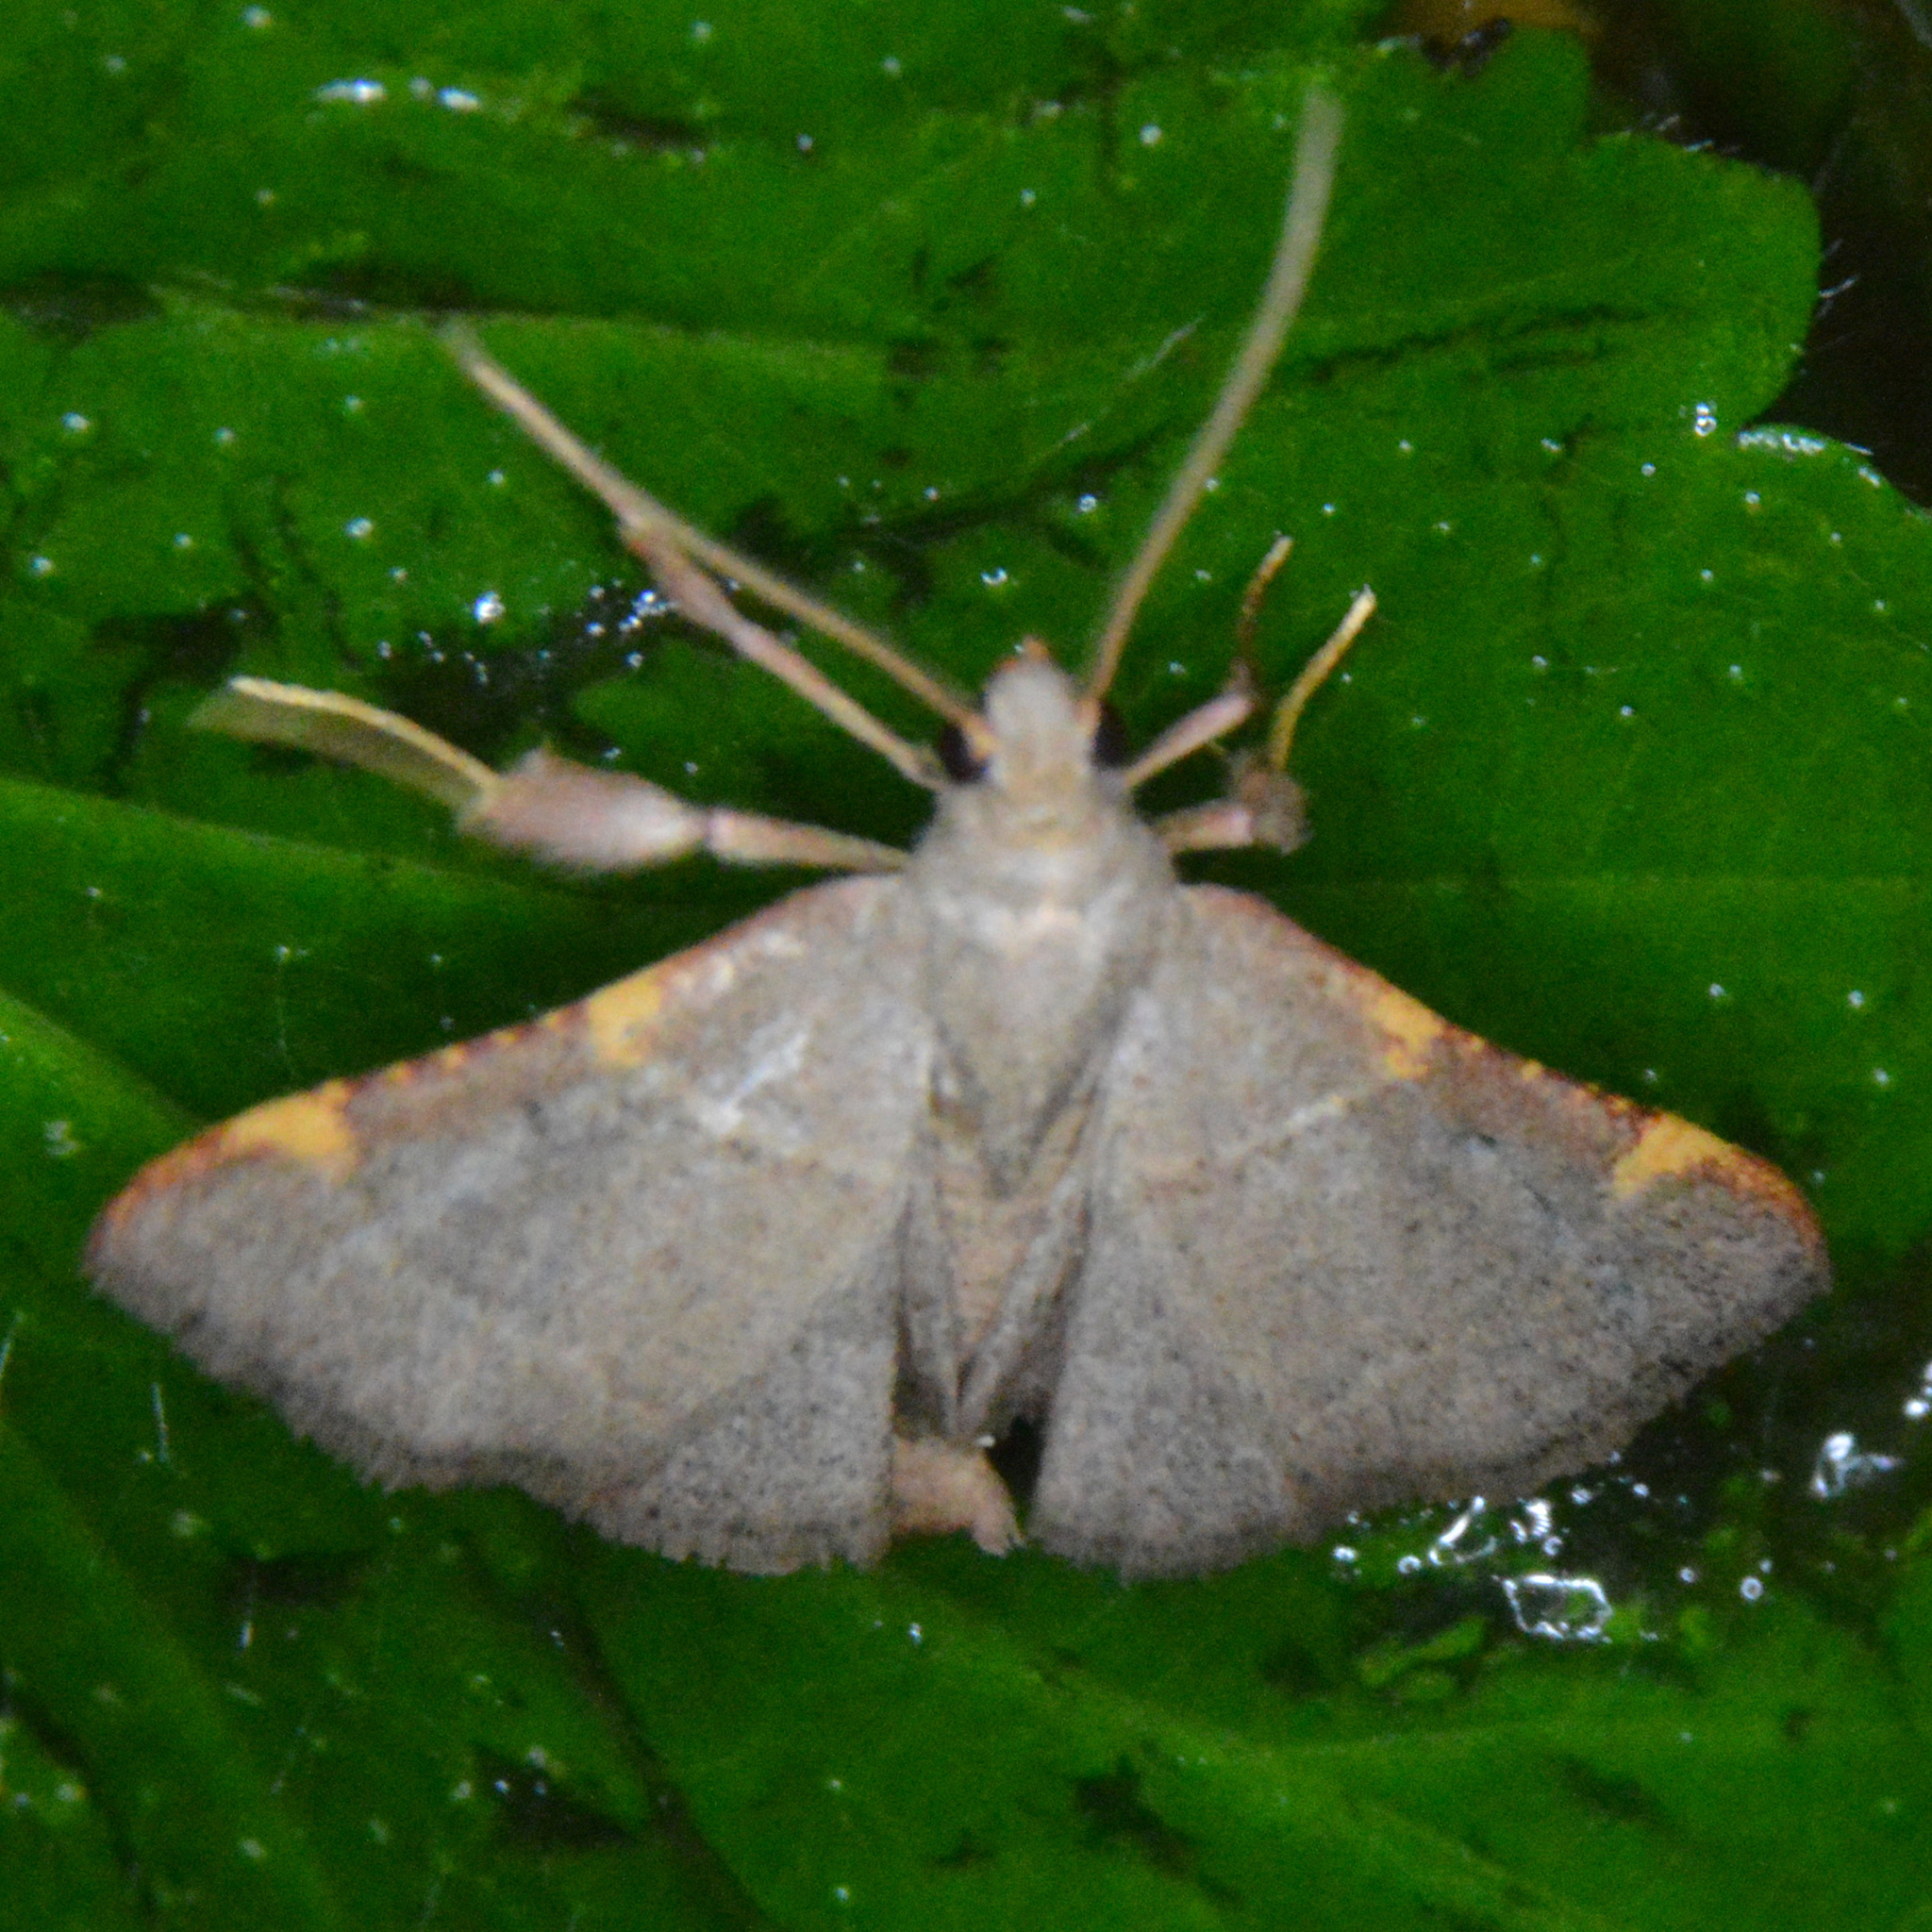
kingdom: Animalia
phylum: Arthropoda
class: Insecta
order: Lepidoptera
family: Pyralidae
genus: Hypsopygia
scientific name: Hypsopygia binodulalis
